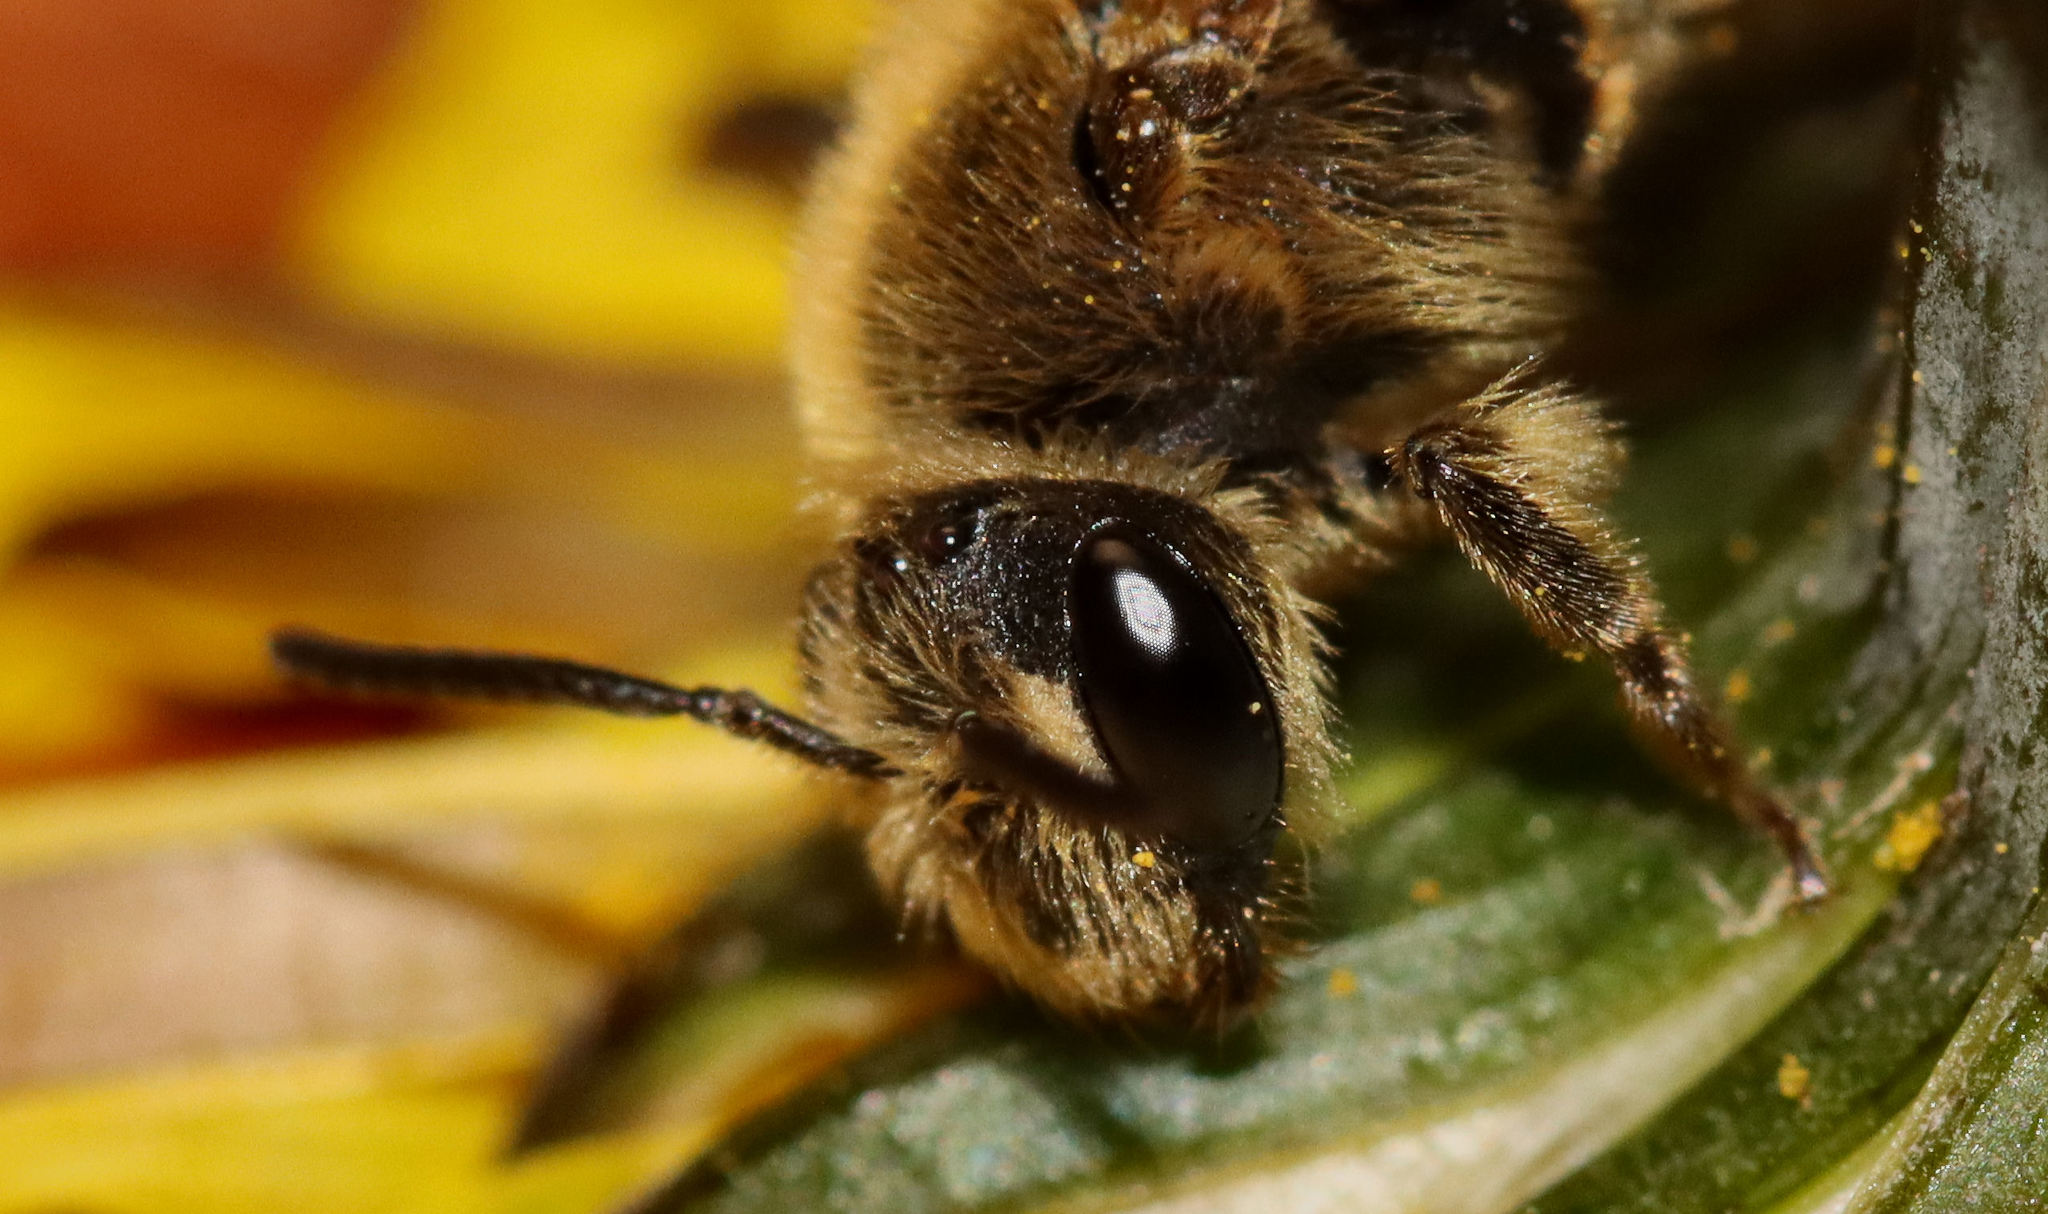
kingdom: Animalia
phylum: Arthropoda
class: Insecta
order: Hymenoptera
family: Andrenidae
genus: Andrena
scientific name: Andrena
